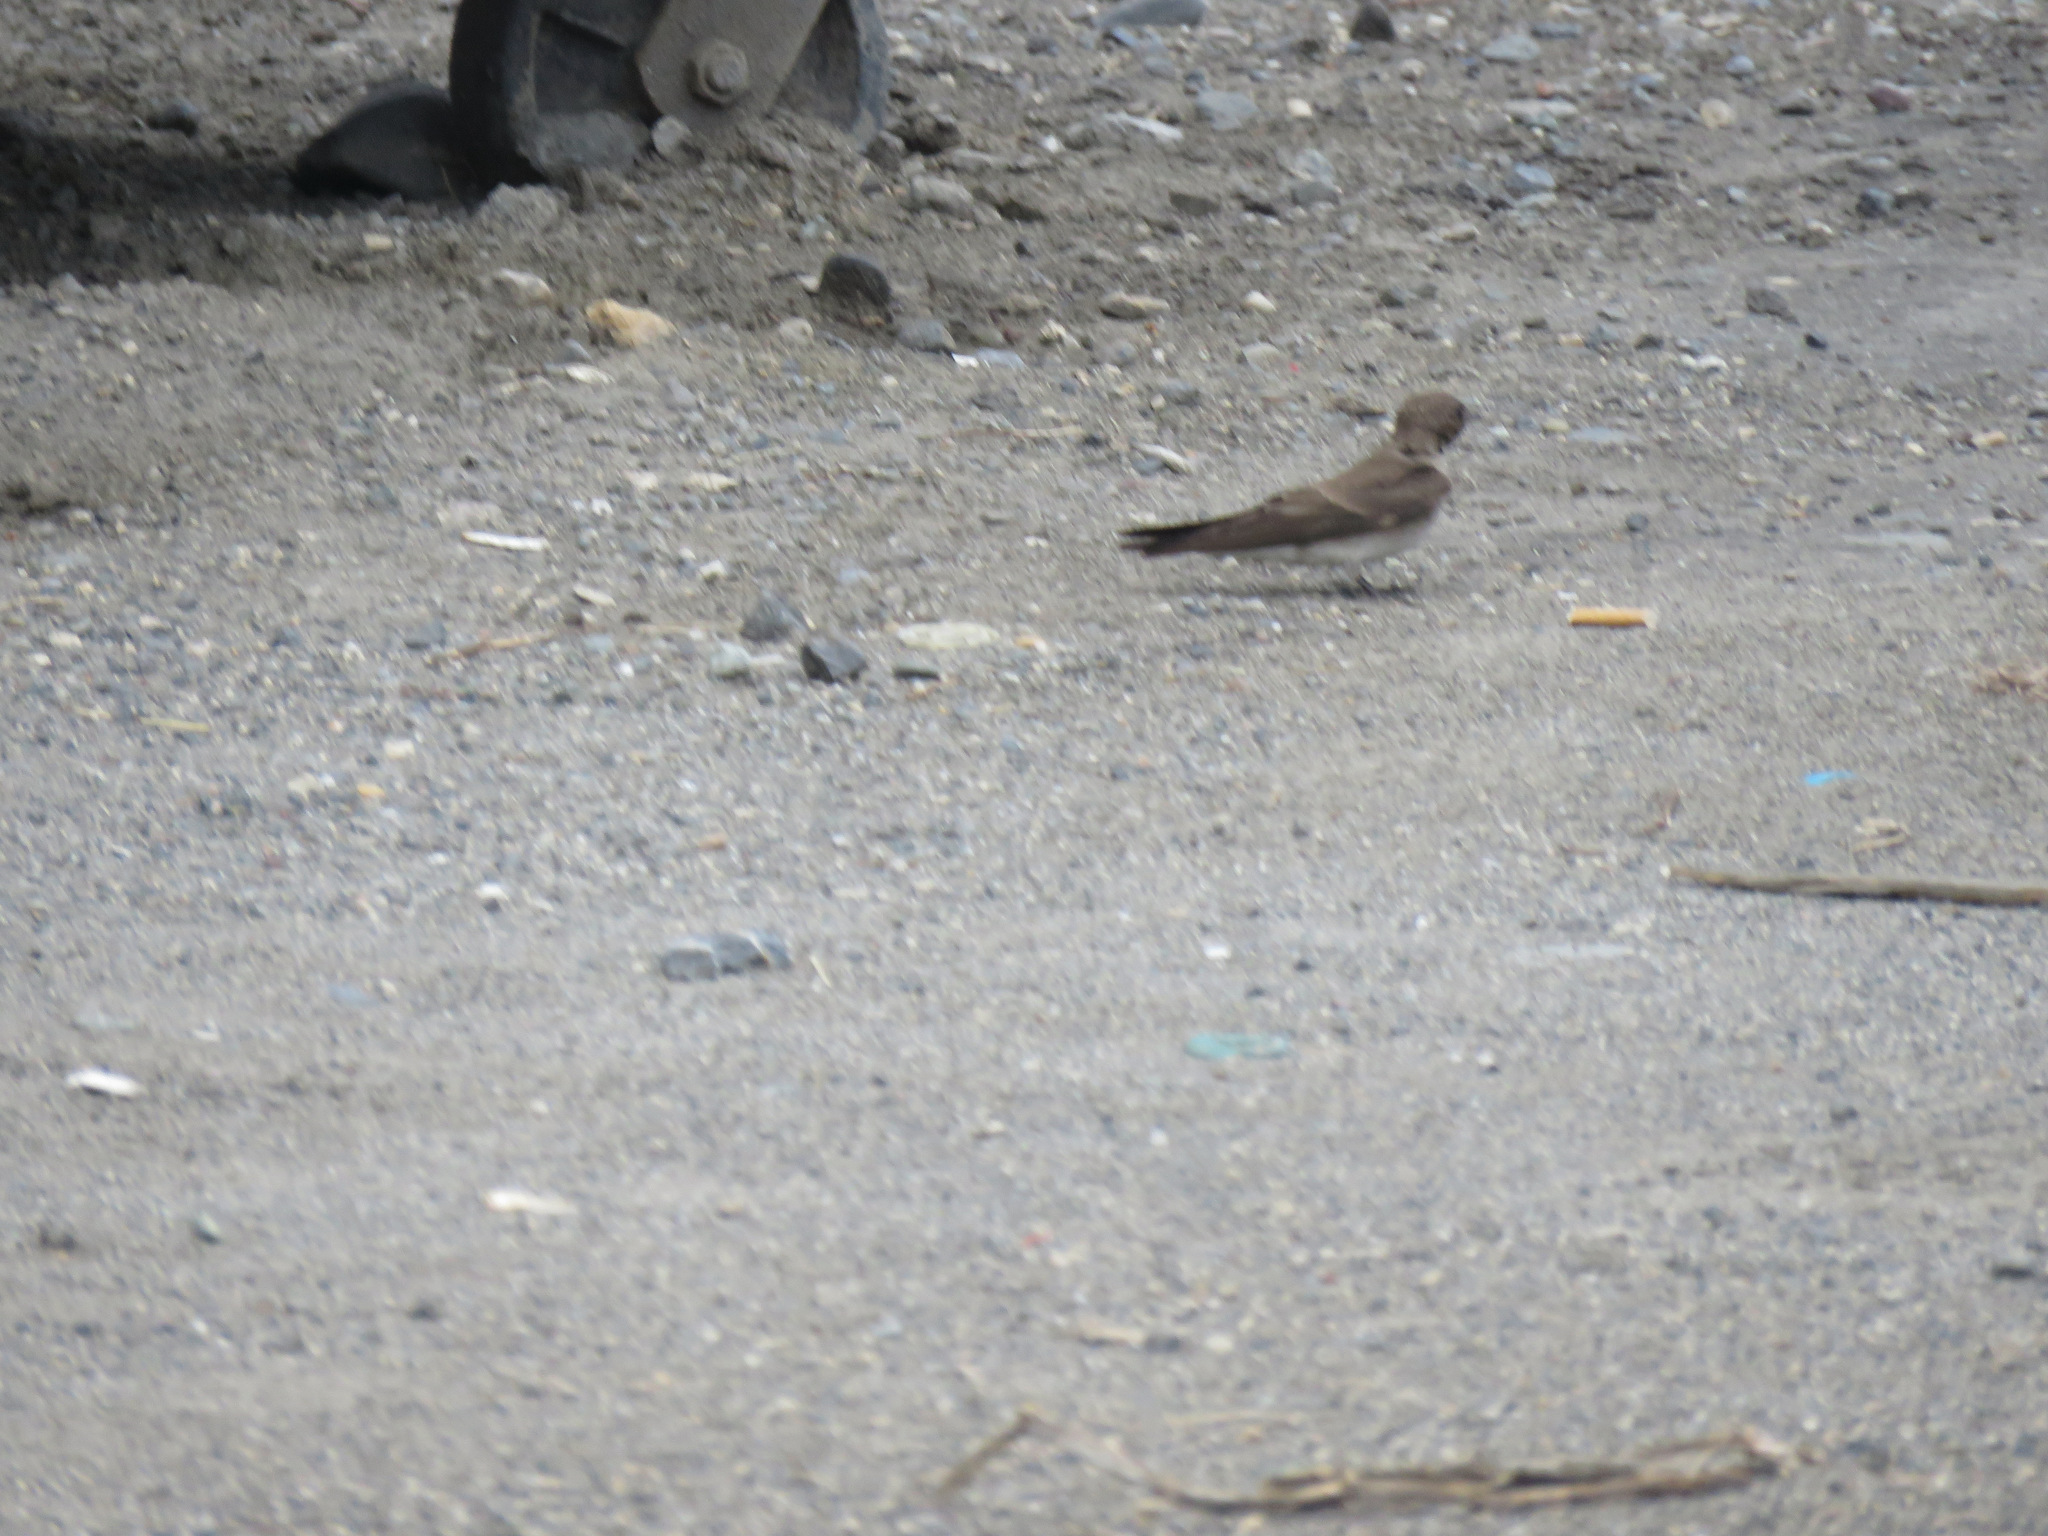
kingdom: Animalia
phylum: Chordata
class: Aves
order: Passeriformes
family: Hirundinidae
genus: Stelgidopteryx
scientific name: Stelgidopteryx serripennis
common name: Northern rough-winged swallow
